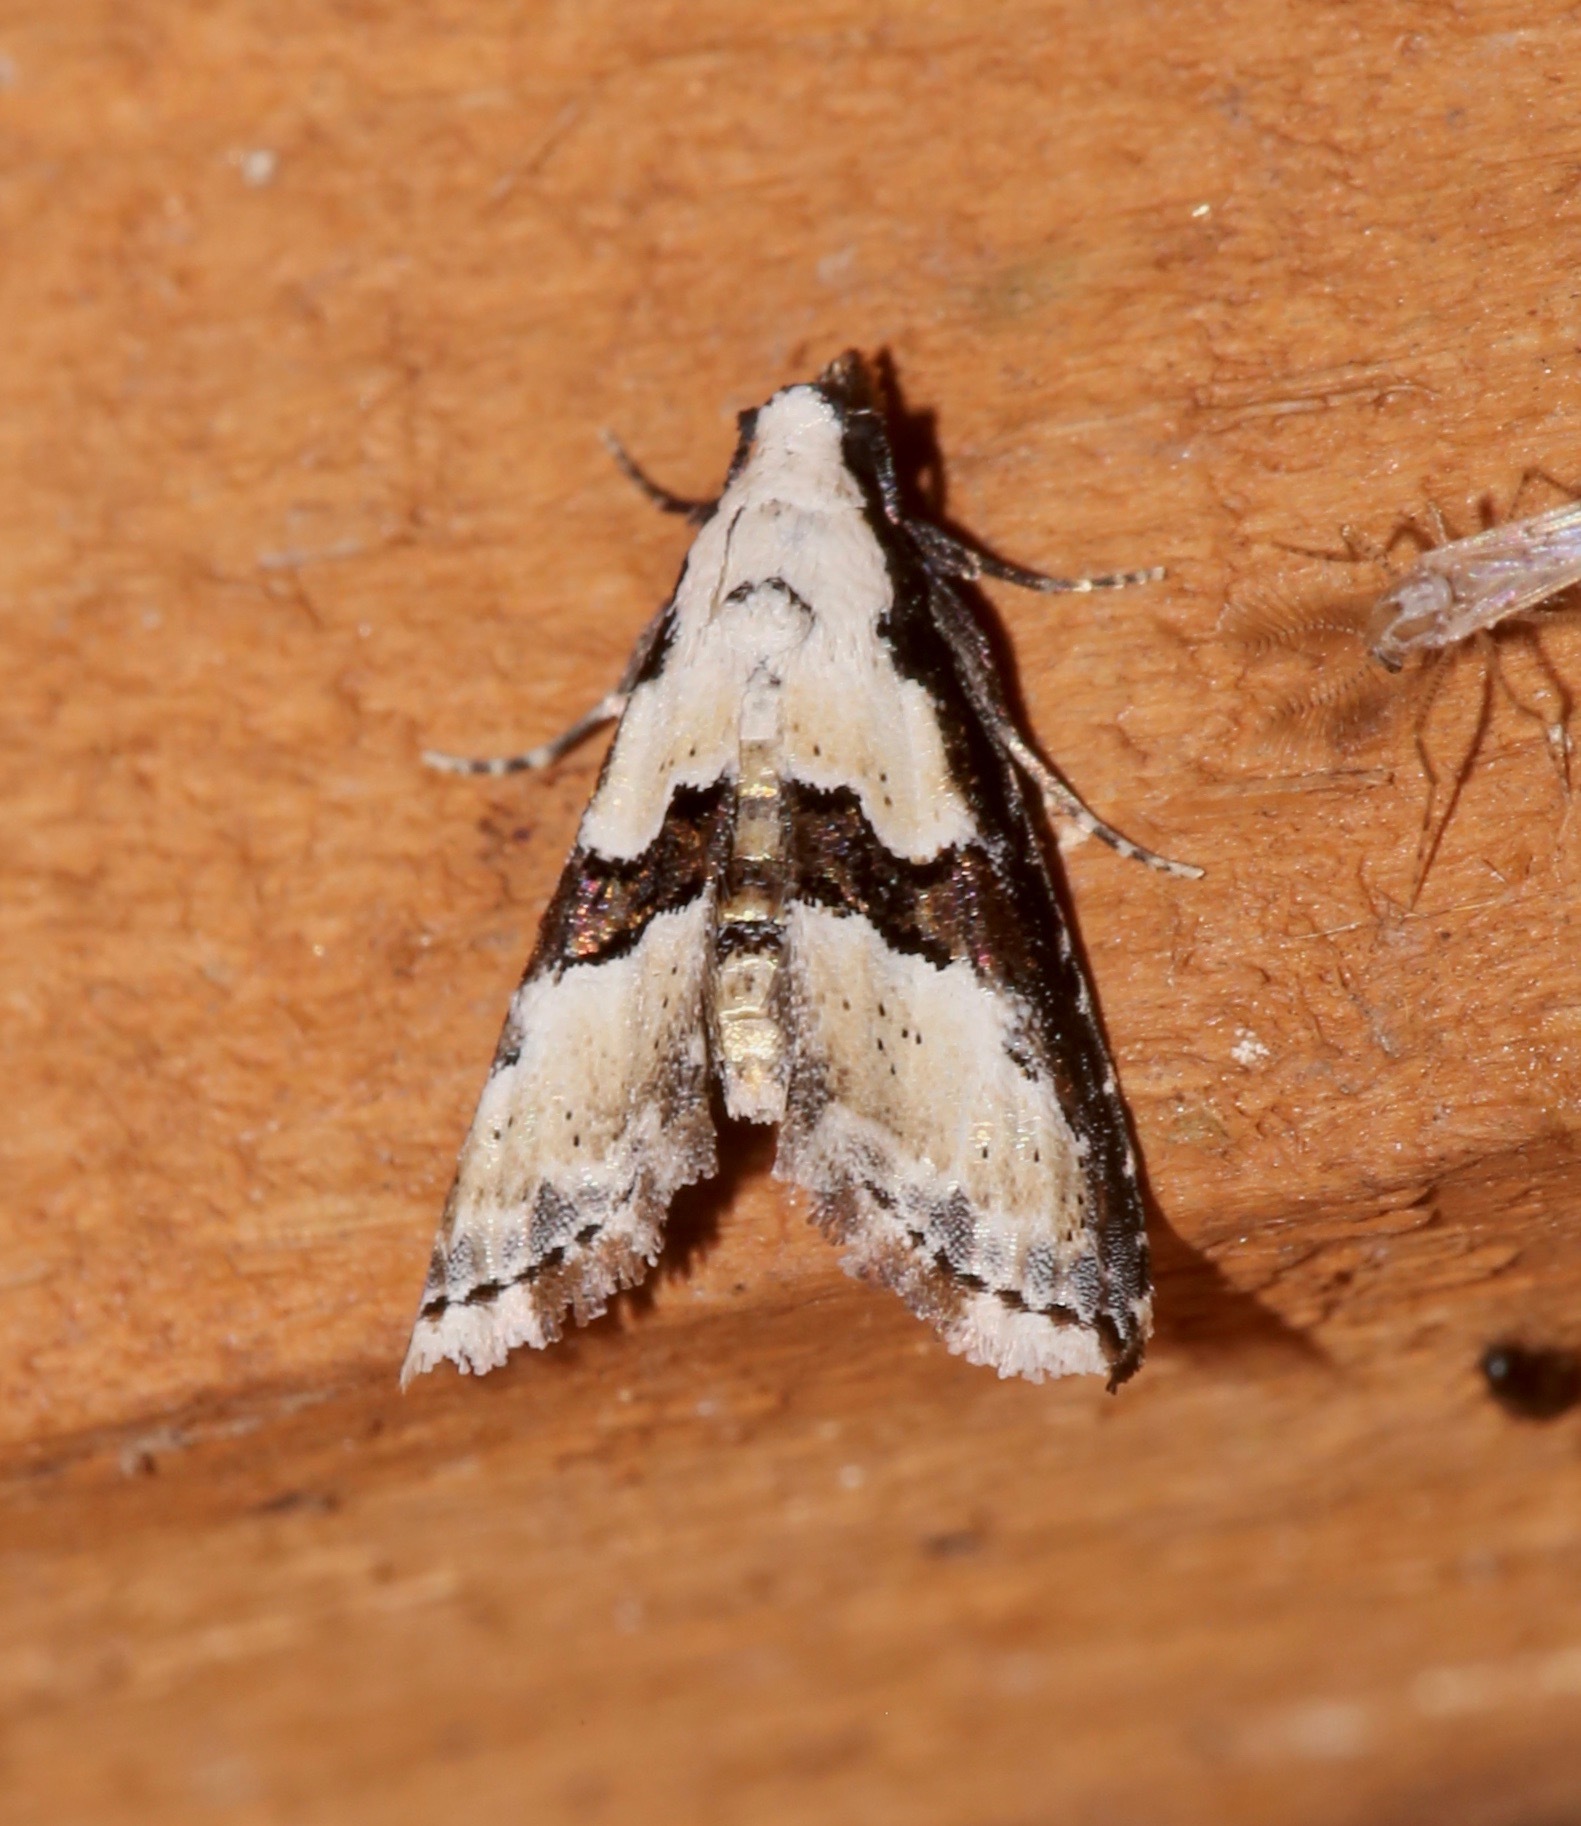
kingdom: Animalia
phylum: Arthropoda
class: Insecta
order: Lepidoptera
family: Noctuidae
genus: Nigetia
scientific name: Nigetia formosalis
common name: Thin-winged owlet
